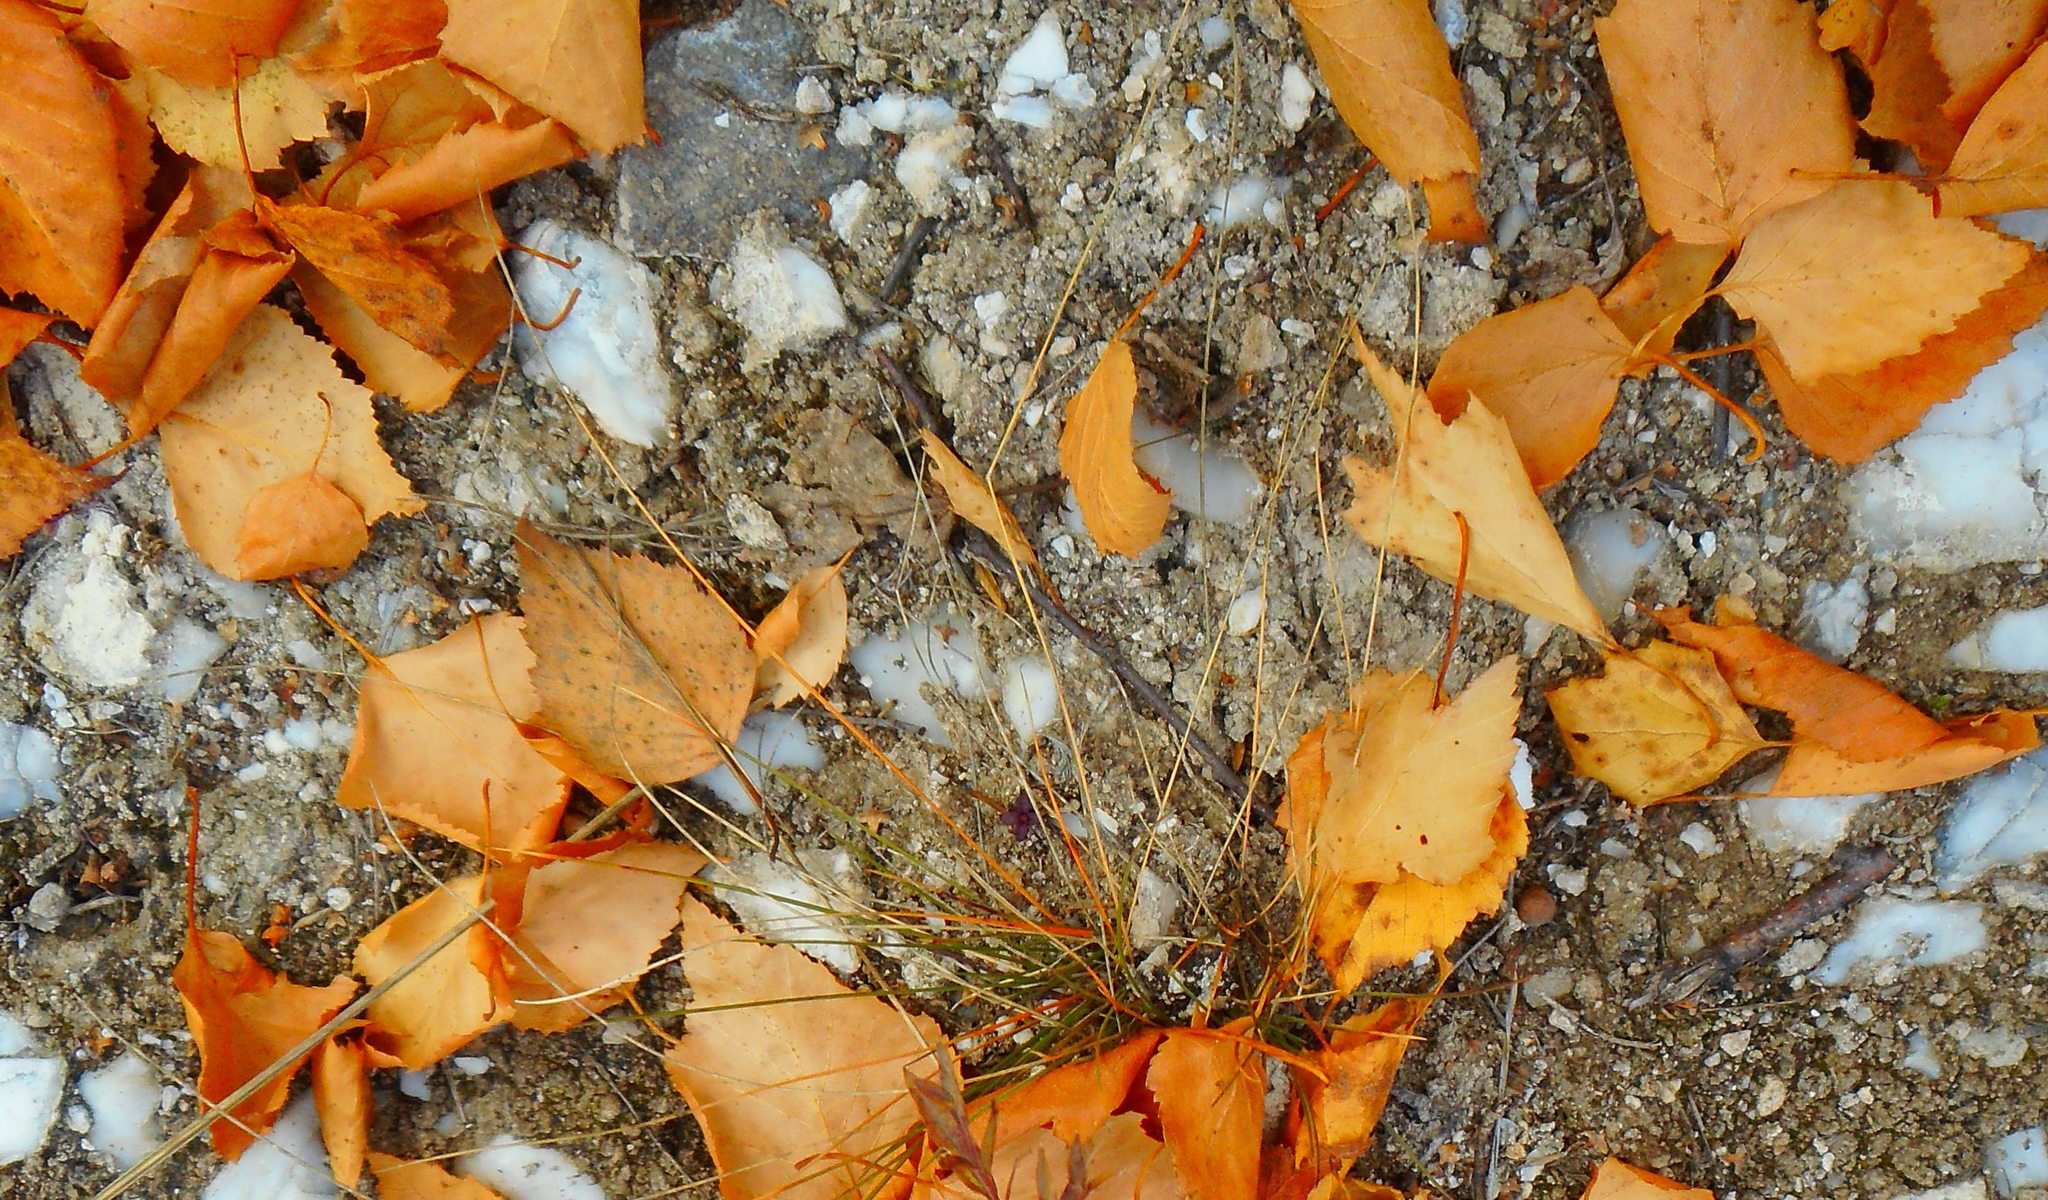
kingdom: Plantae
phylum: Tracheophyta
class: Magnoliopsida
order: Fagales
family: Betulaceae
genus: Betula
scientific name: Betula pendula
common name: Silver birch
